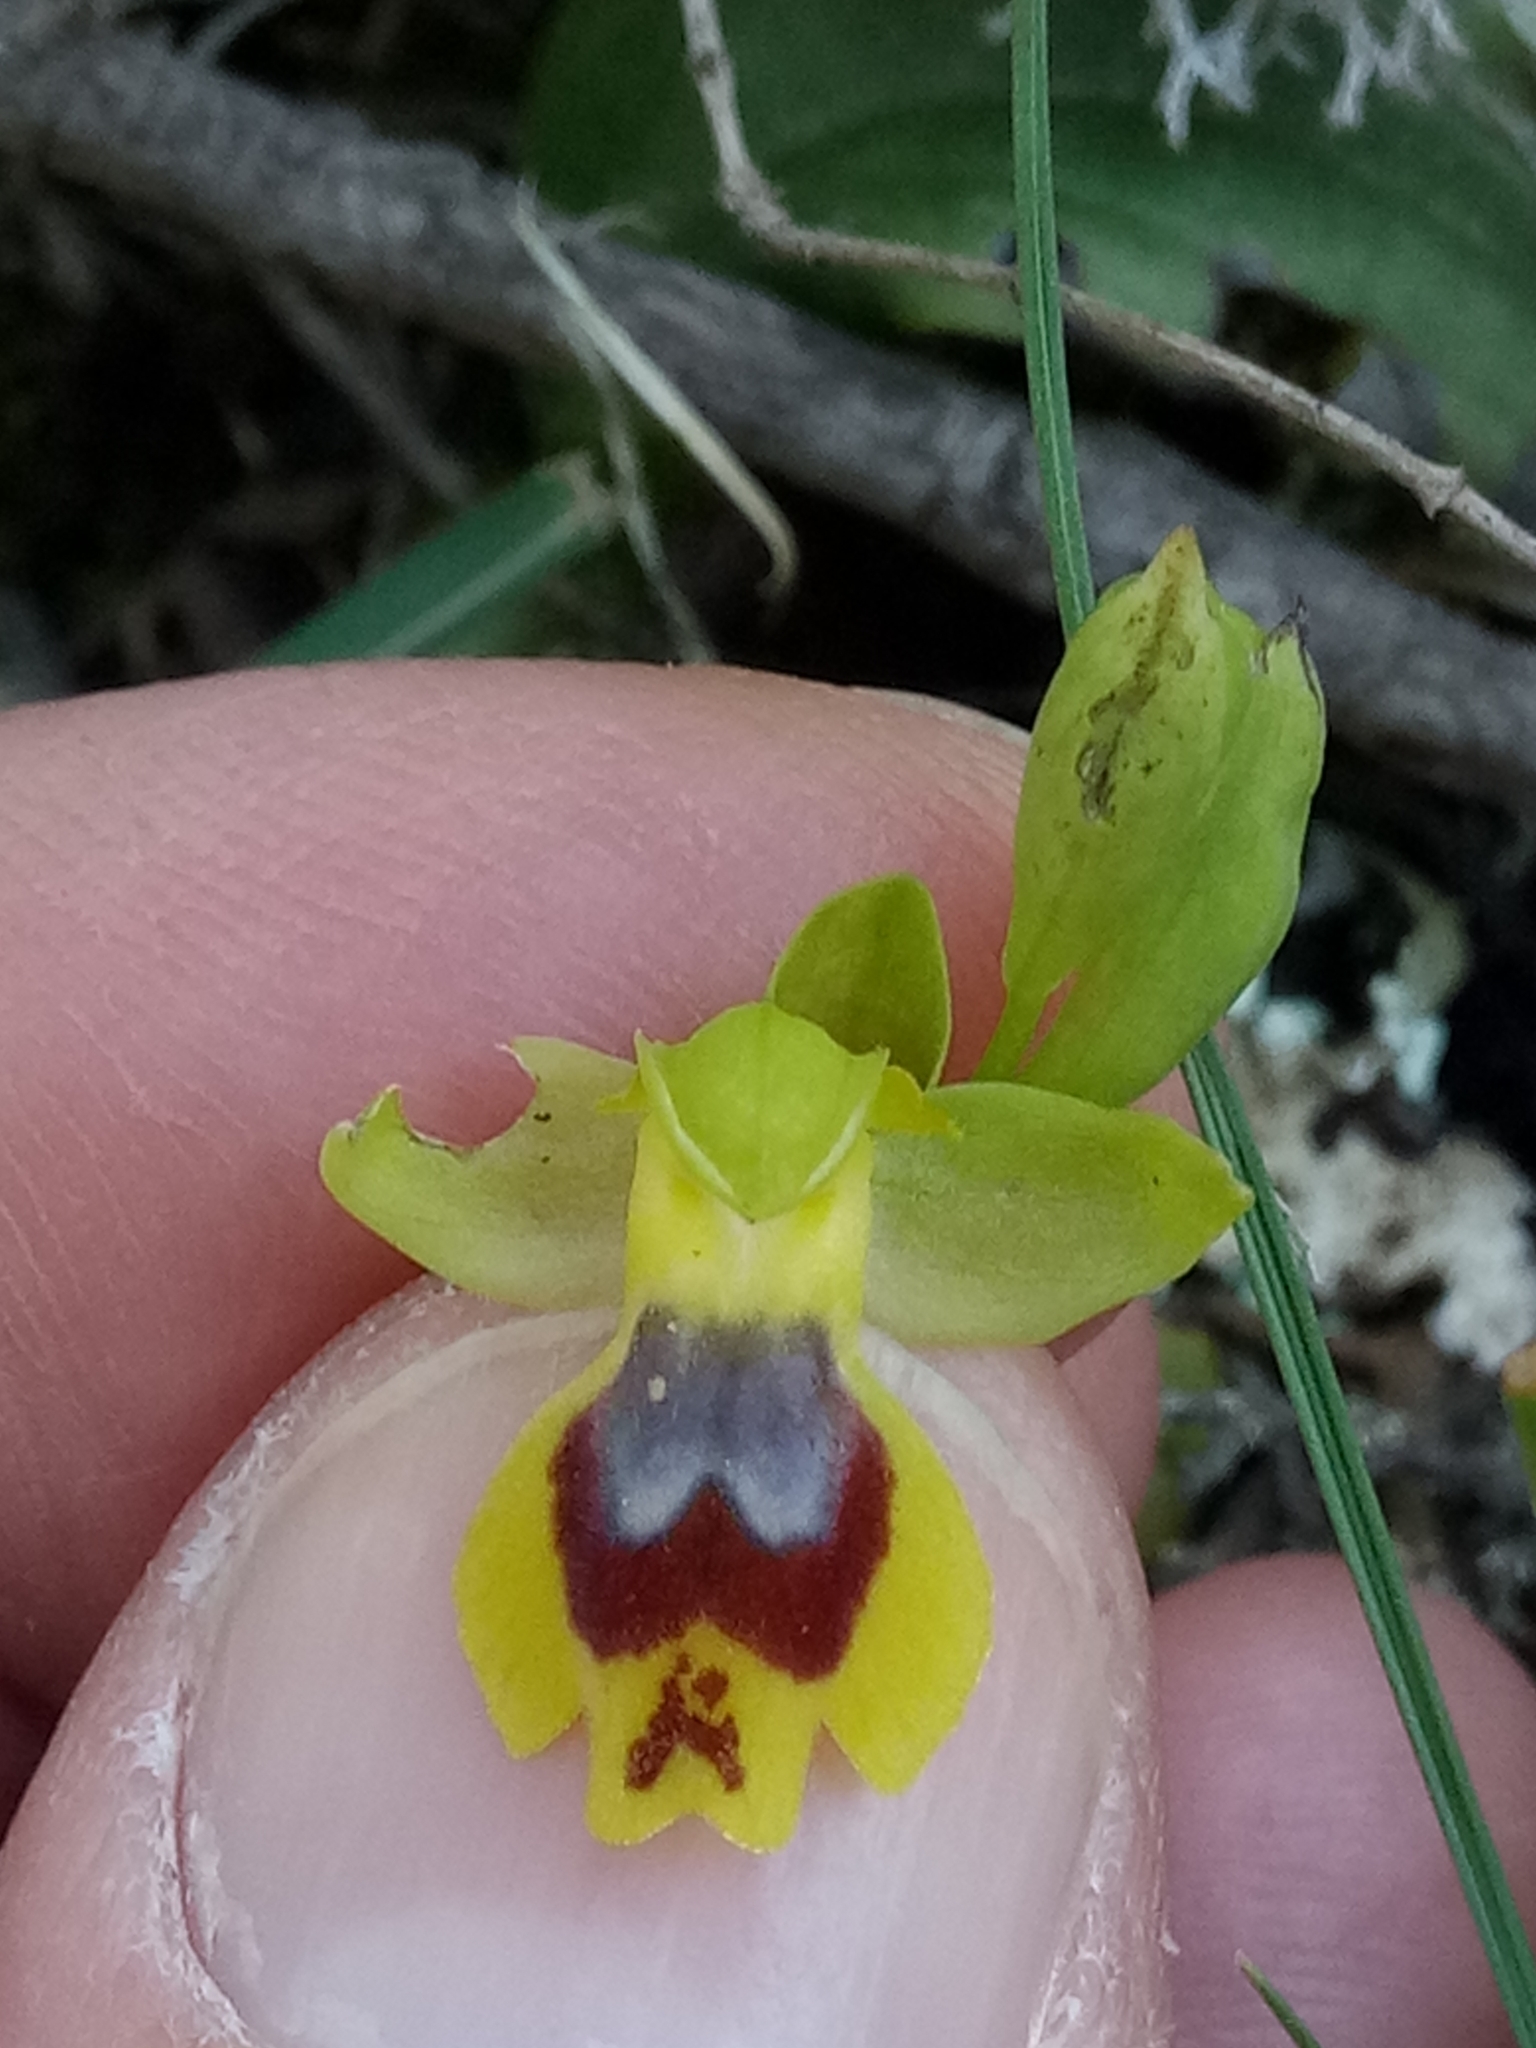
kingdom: Plantae
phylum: Tracheophyta
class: Liliopsida
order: Asparagales
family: Orchidaceae
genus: Ophrys
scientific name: Ophrys battandieri
